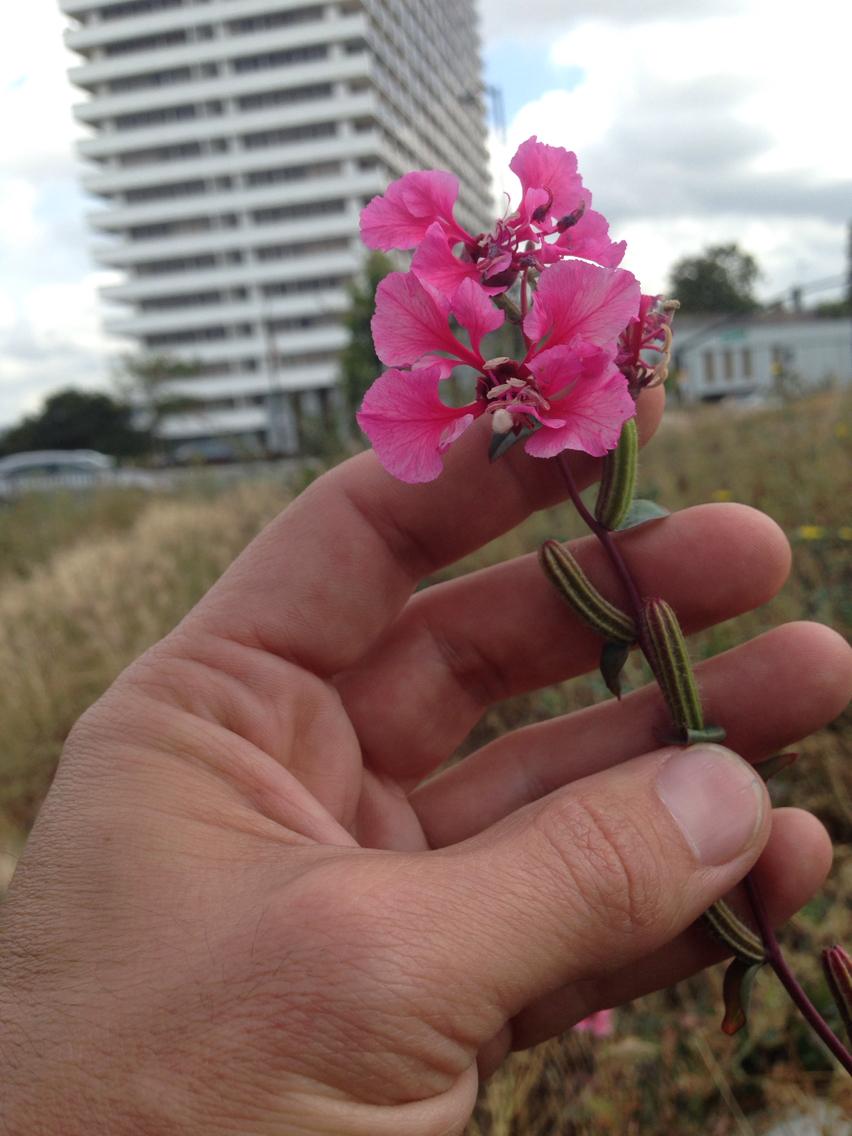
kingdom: Plantae
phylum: Tracheophyta
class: Magnoliopsida
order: Myrtales
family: Onagraceae
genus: Clarkia
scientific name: Clarkia unguiculata
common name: Clarkia
